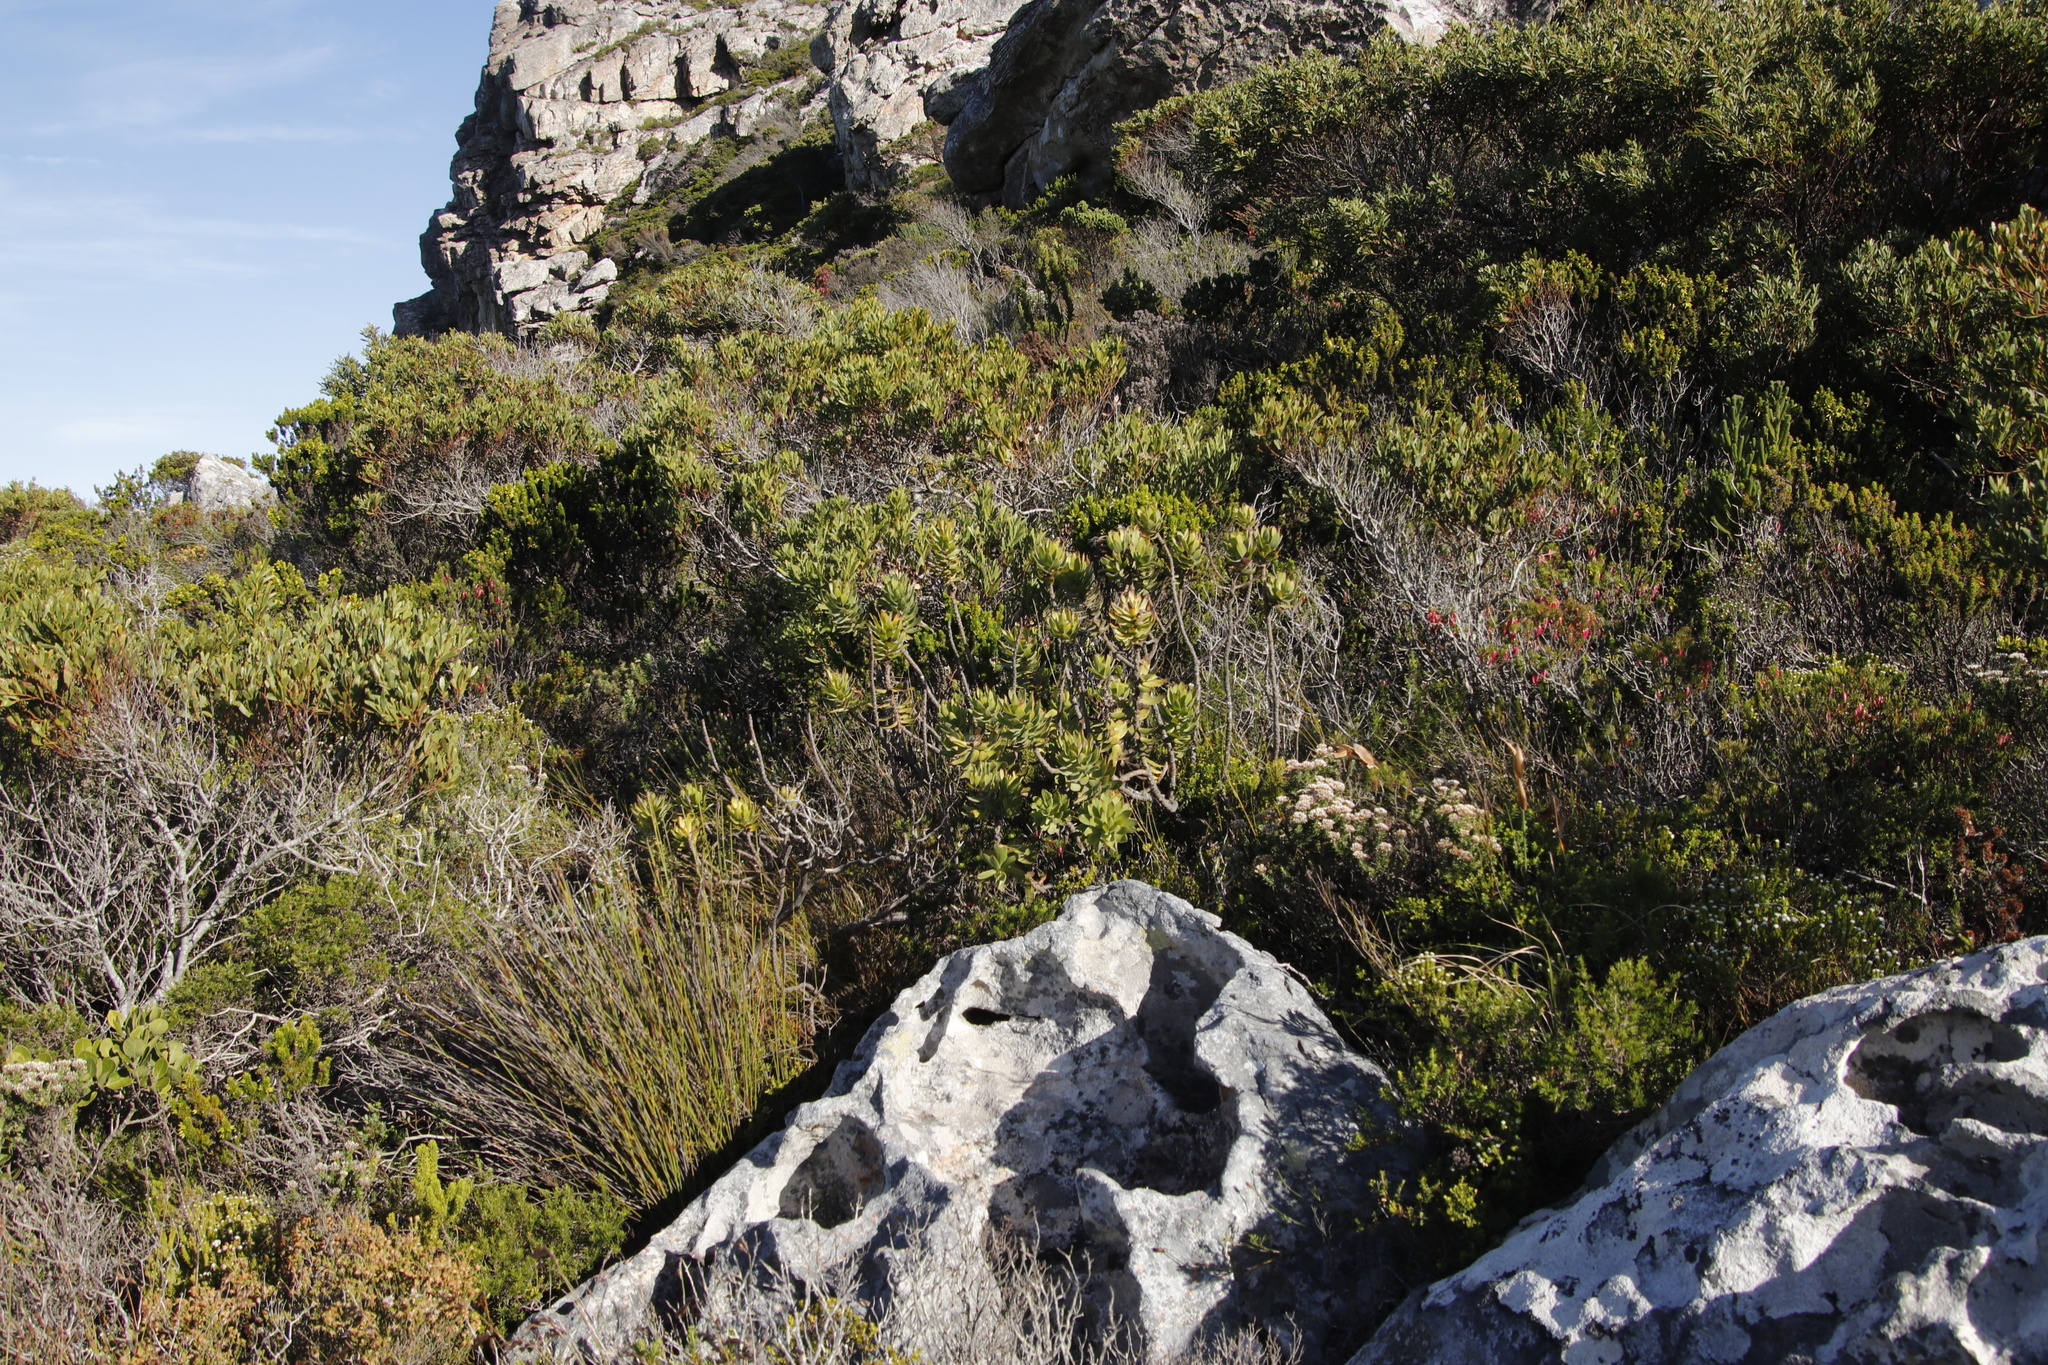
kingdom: Plantae
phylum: Tracheophyta
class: Magnoliopsida
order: Proteales
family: Proteaceae
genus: Mimetes
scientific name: Mimetes cucullatus
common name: Common pagoda
